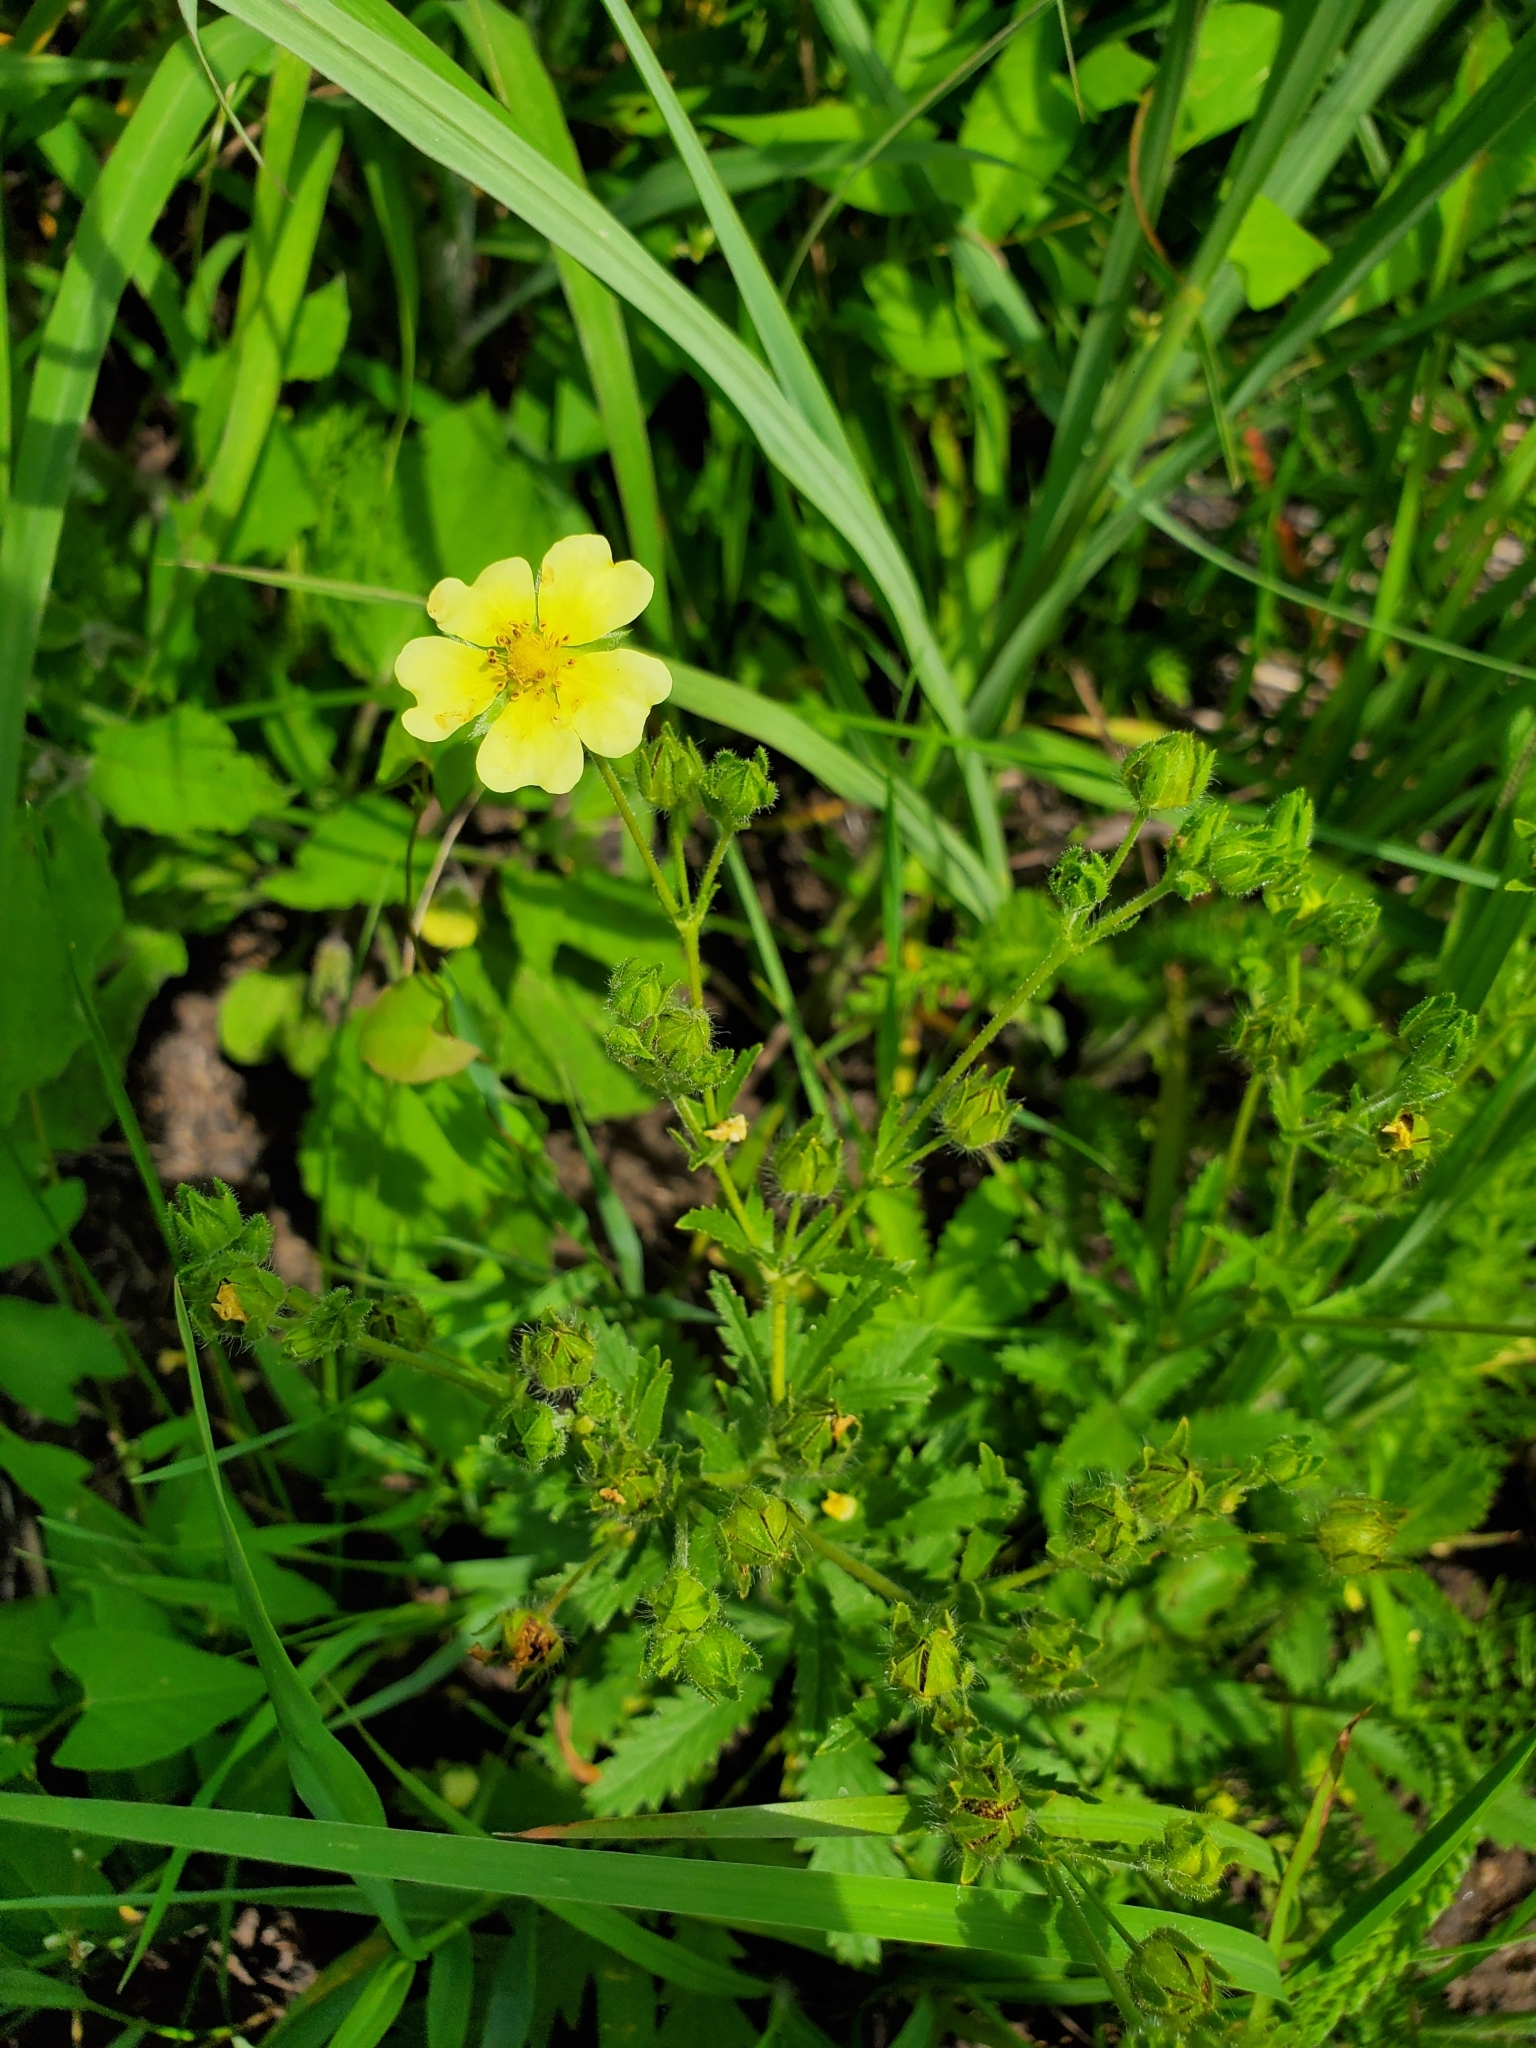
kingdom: Plantae
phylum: Tracheophyta
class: Magnoliopsida
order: Rosales
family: Rosaceae
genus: Potentilla
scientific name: Potentilla recta
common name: Sulphur cinquefoil
